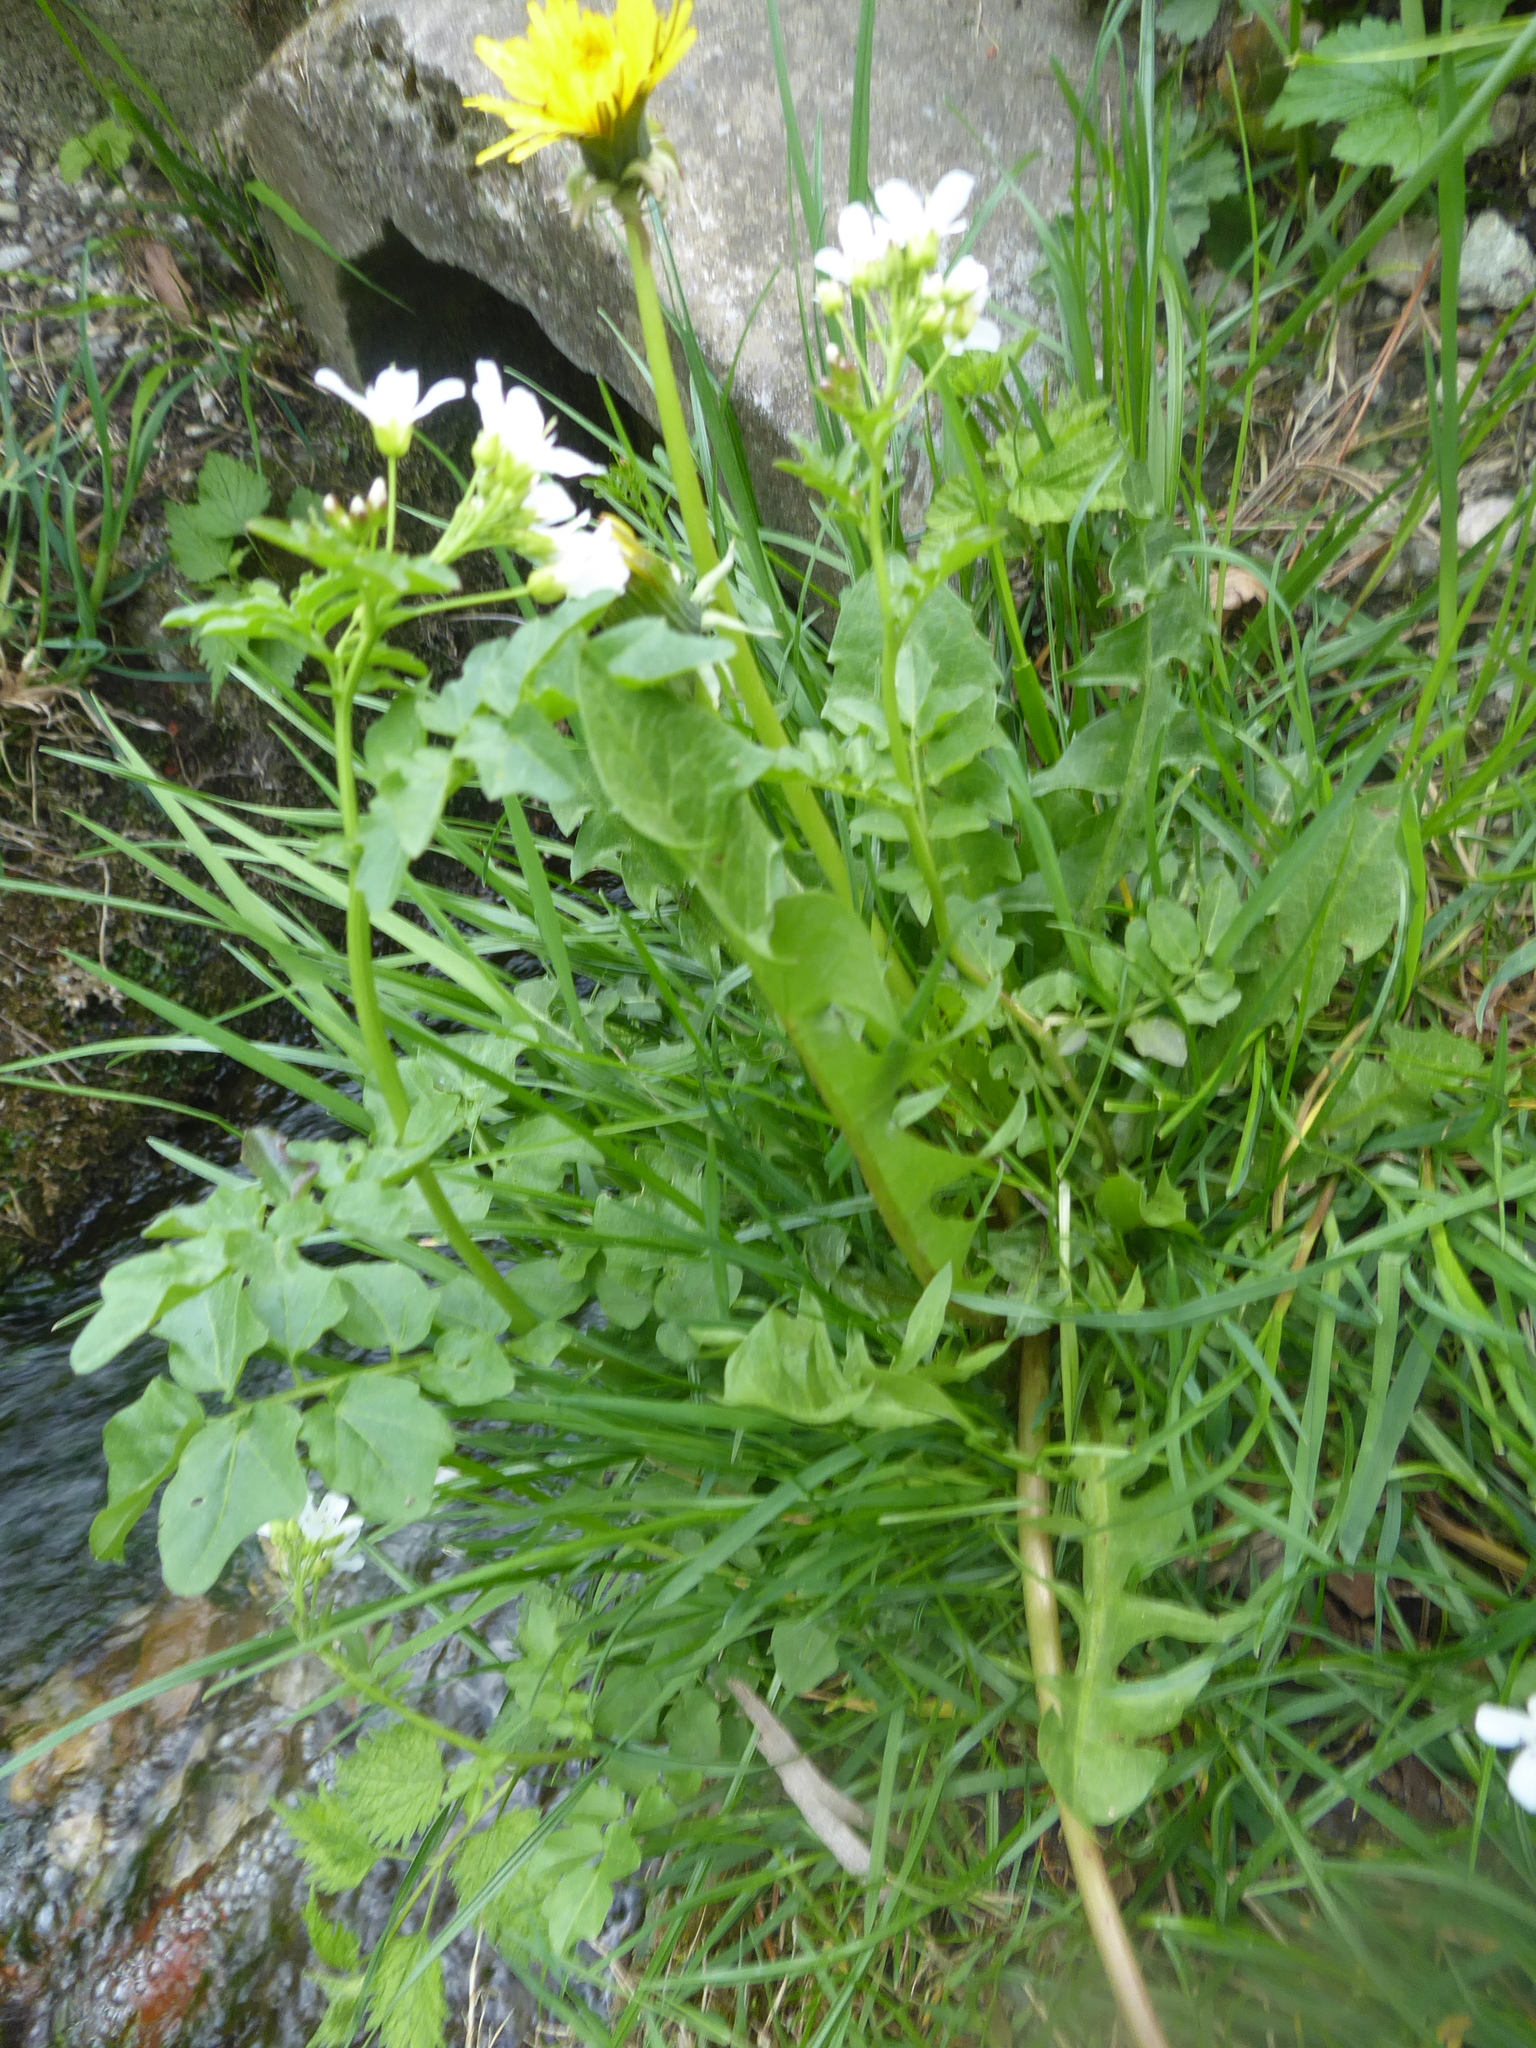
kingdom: Plantae
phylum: Tracheophyta
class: Magnoliopsida
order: Brassicales
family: Brassicaceae
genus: Cardamine
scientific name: Cardamine amara
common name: Large bitter-cress
